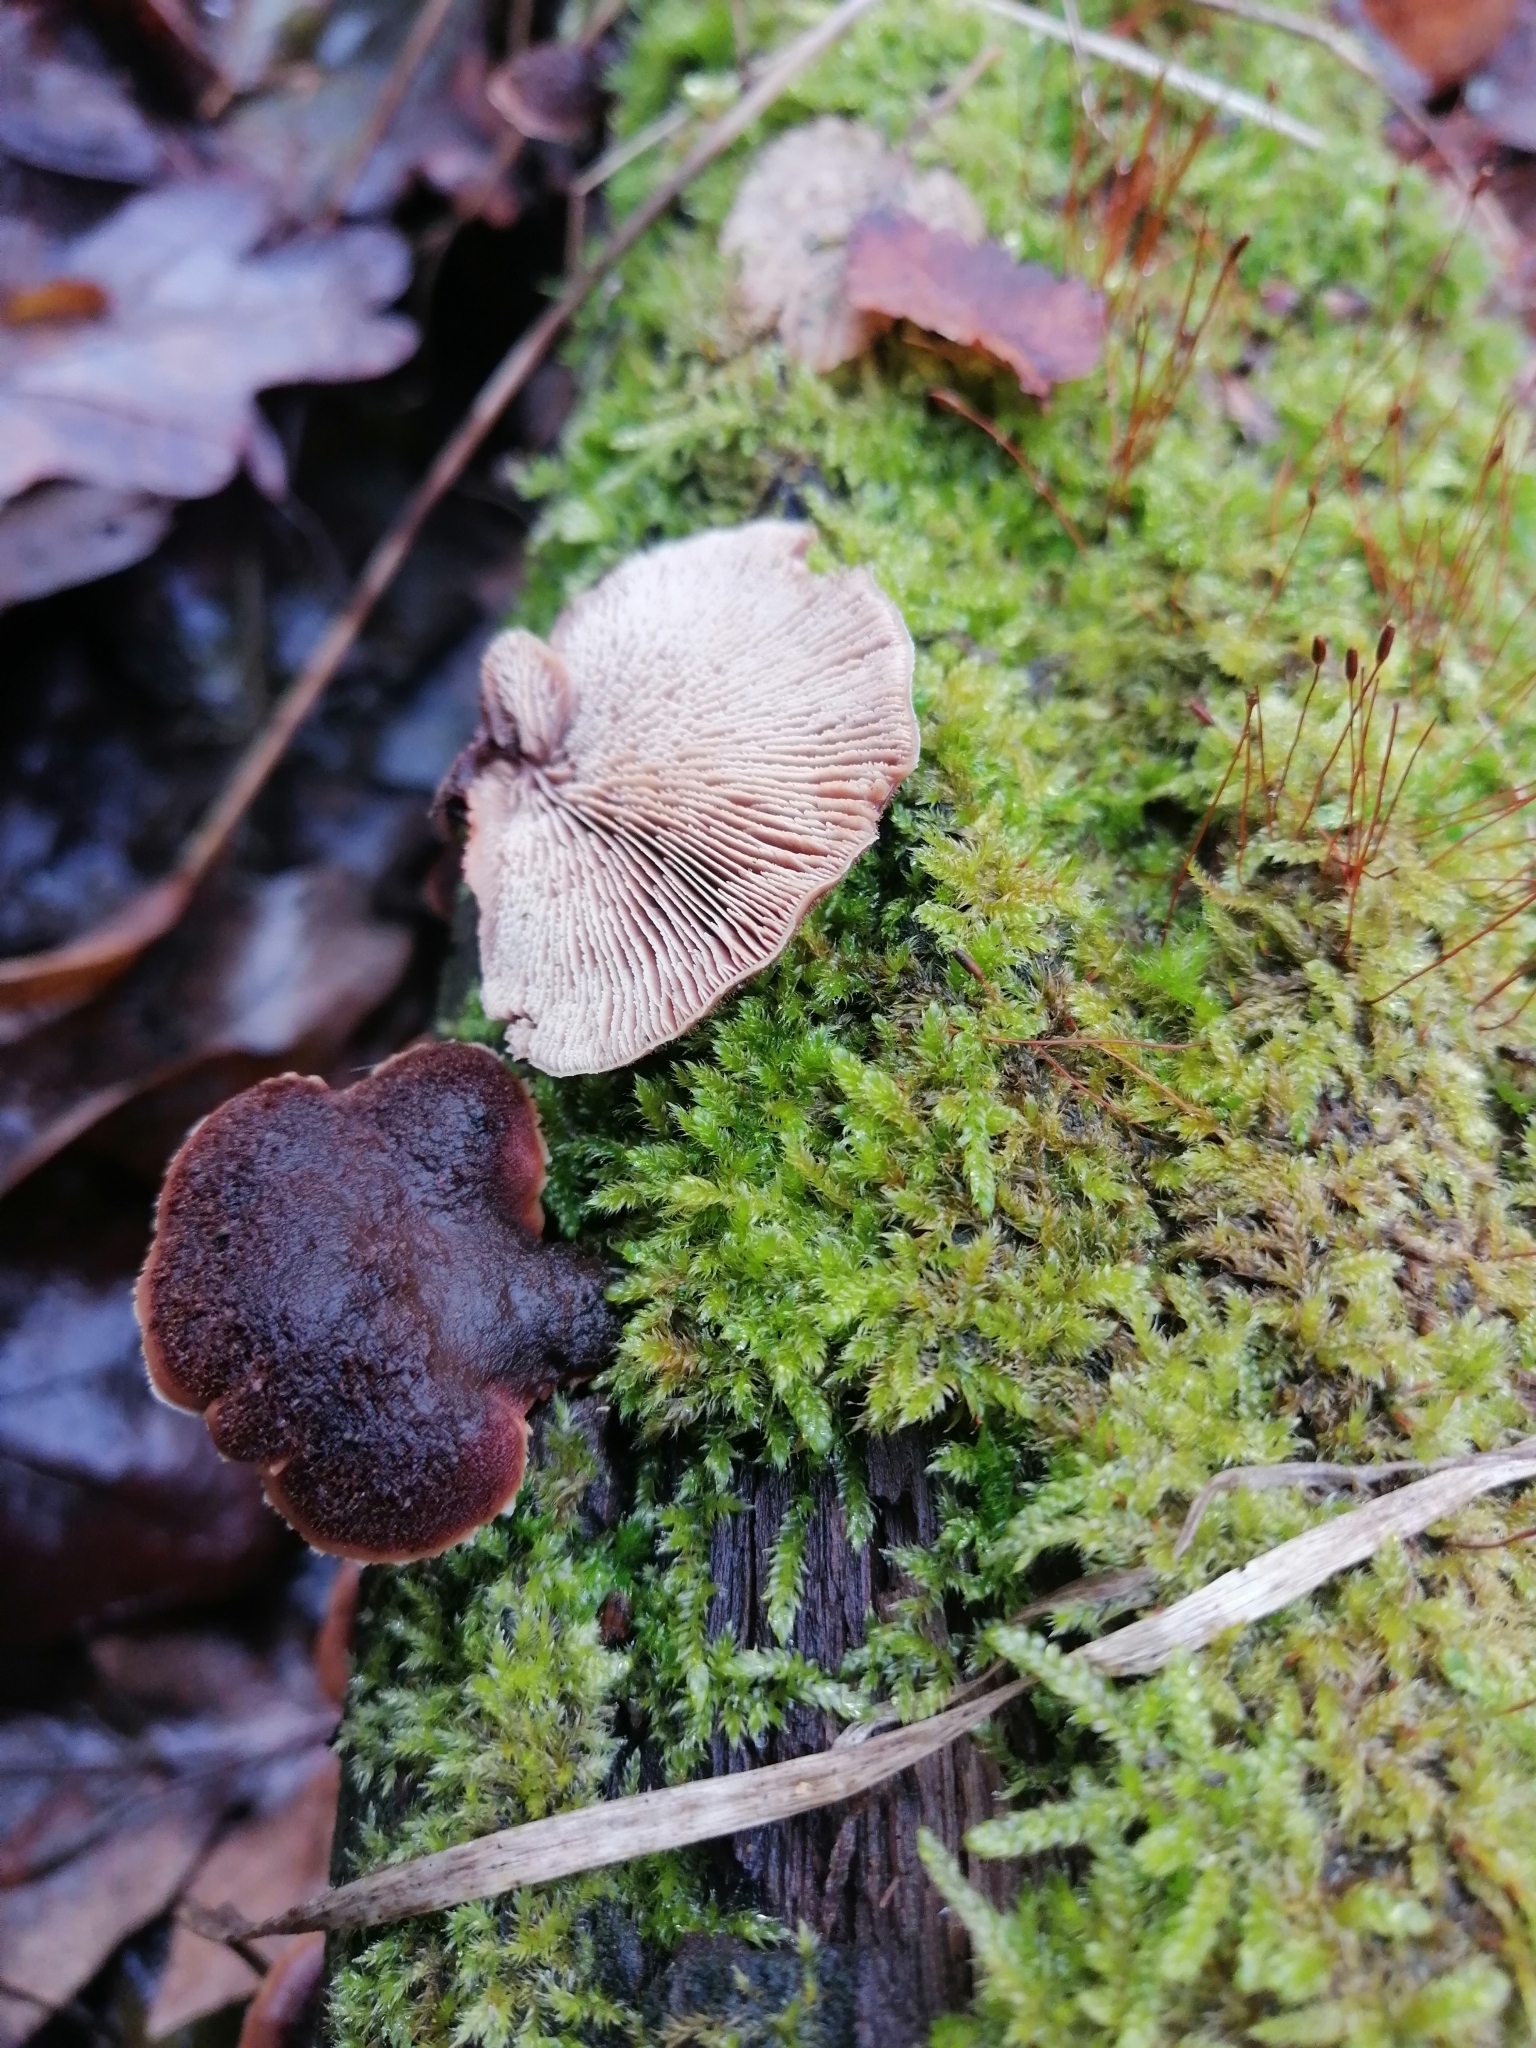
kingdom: Fungi
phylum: Basidiomycota
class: Agaricomycetes
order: Russulales
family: Auriscalpiaceae
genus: Lentinellus
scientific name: Lentinellus ursinus
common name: Bear lentinus
